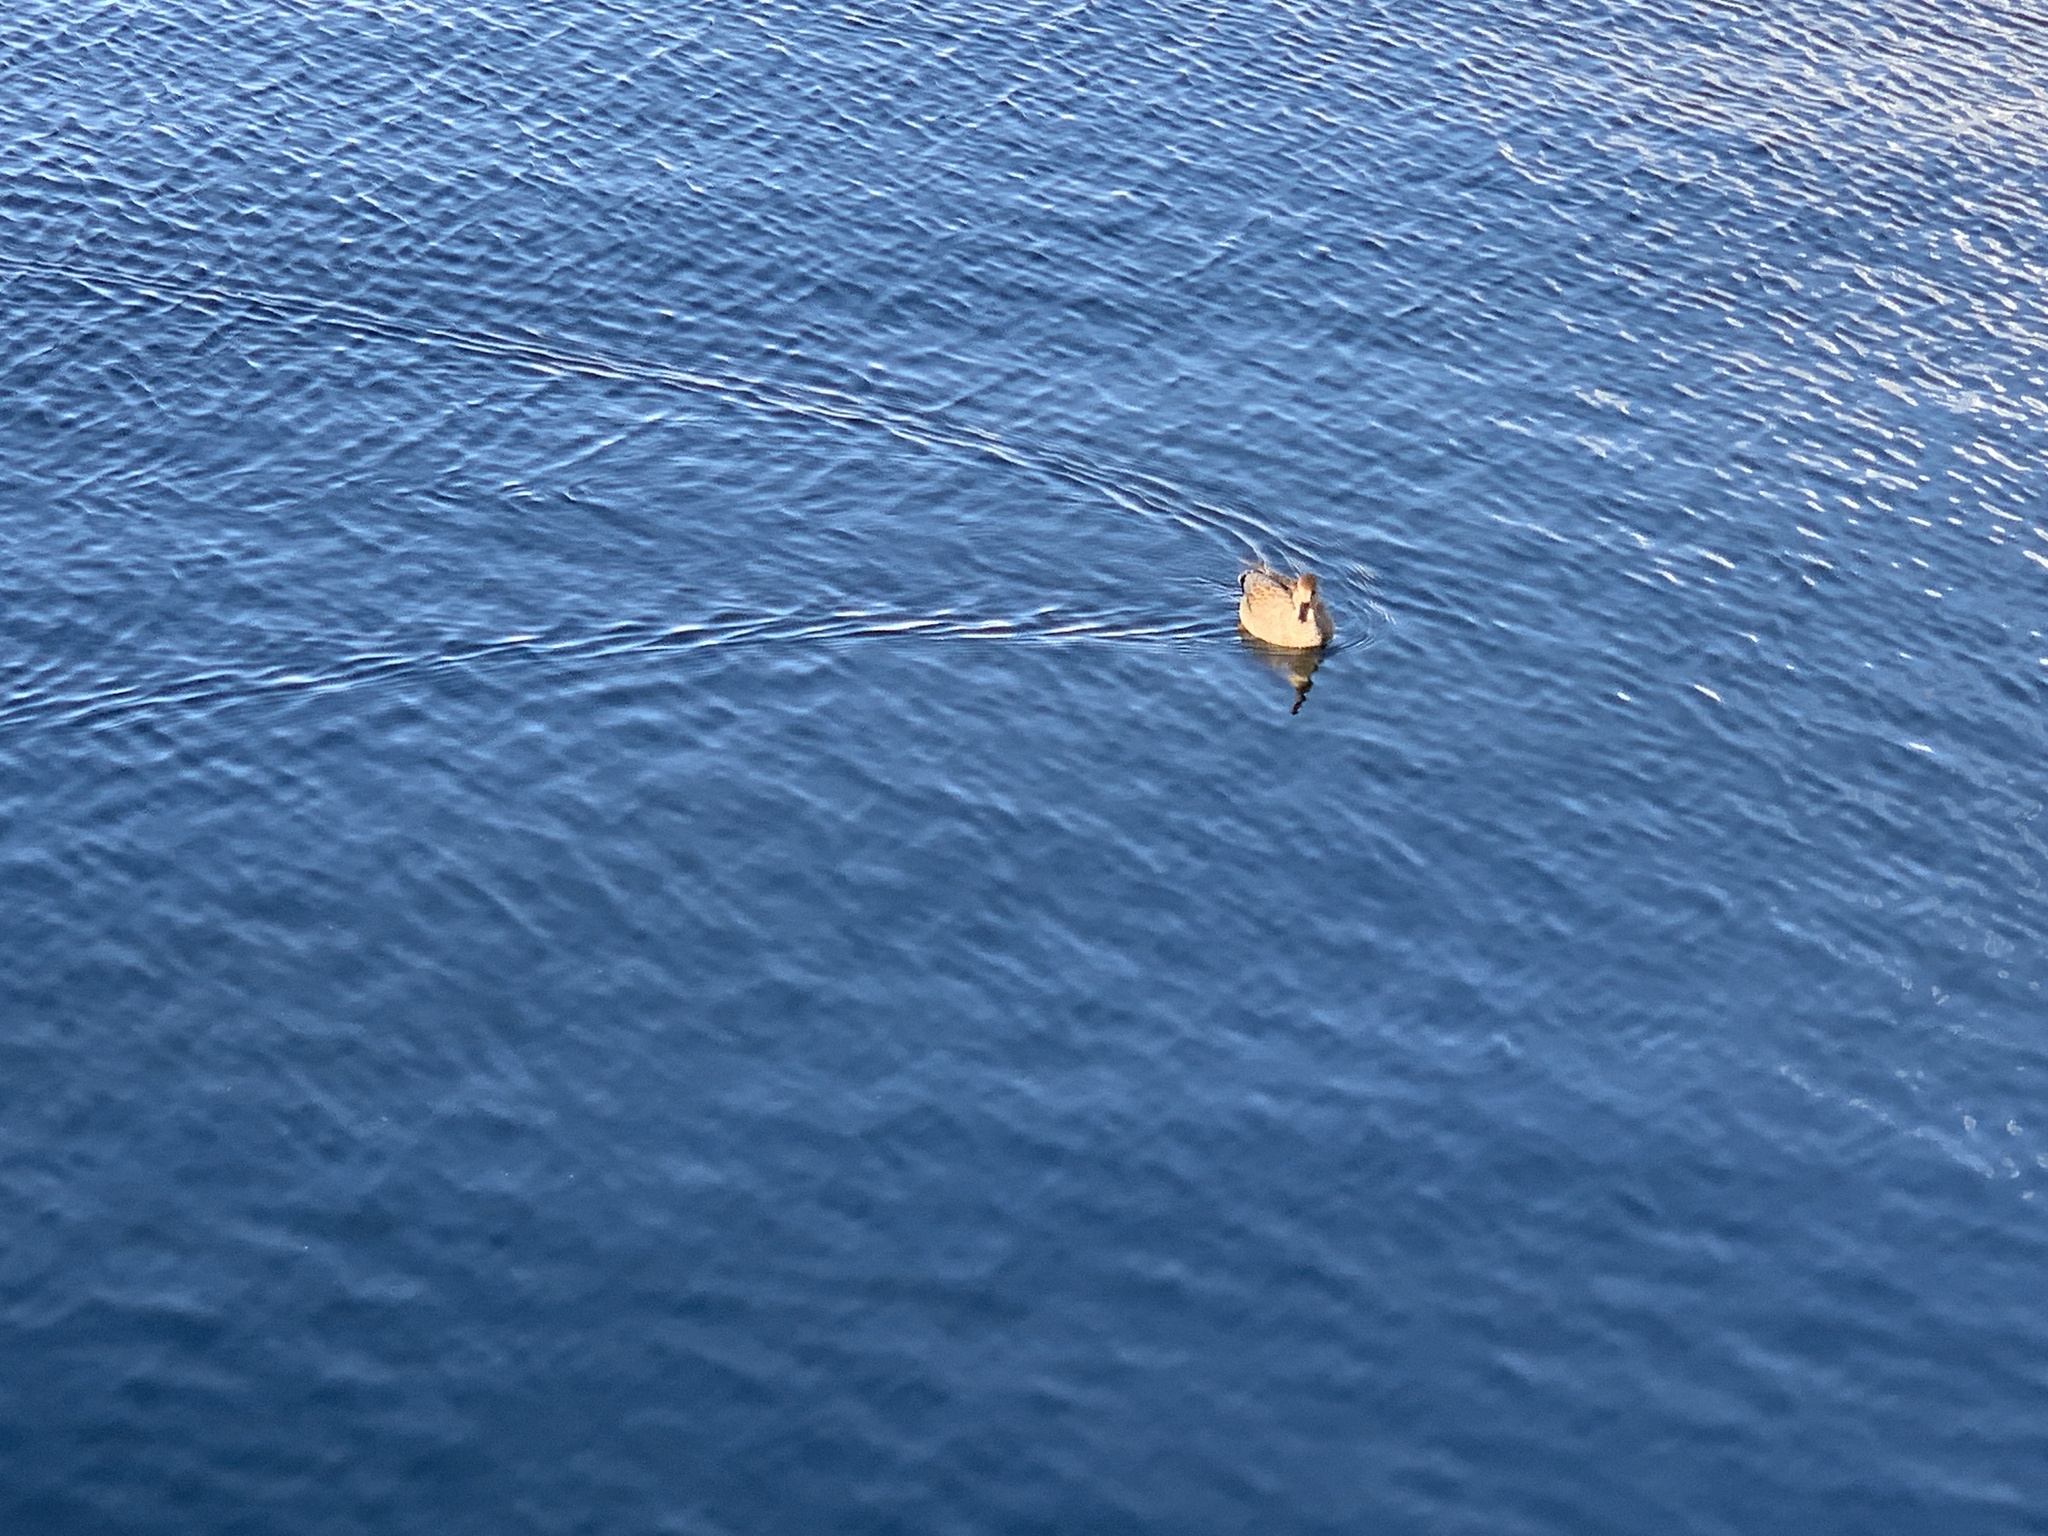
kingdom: Animalia
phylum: Chordata
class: Aves
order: Anseriformes
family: Anatidae
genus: Mareca
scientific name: Mareca strepera
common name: Gadwall
